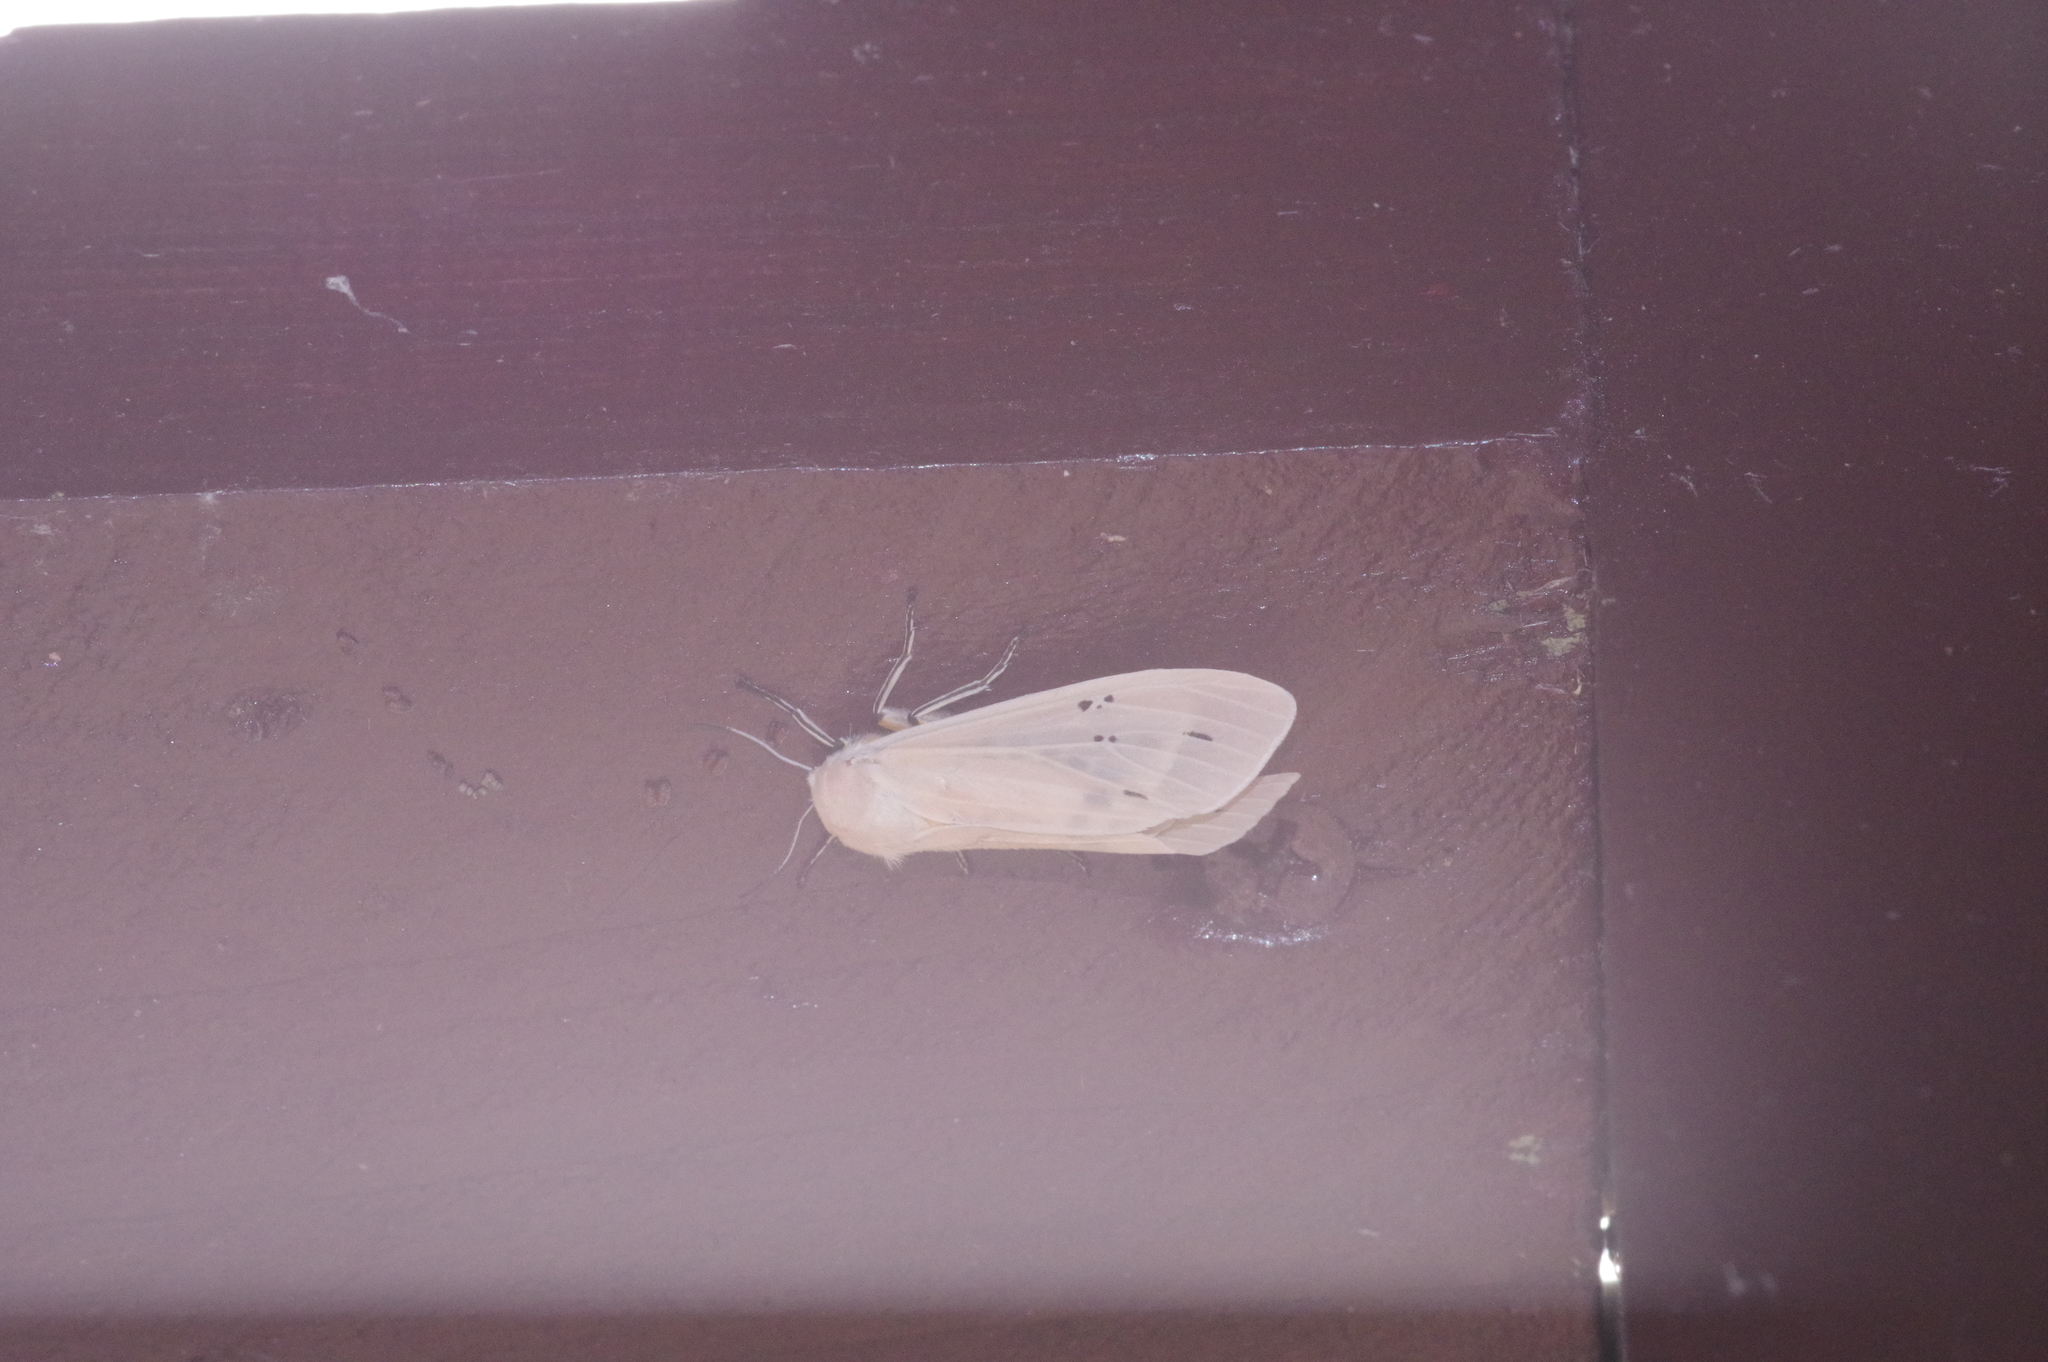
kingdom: Animalia
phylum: Arthropoda
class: Insecta
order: Lepidoptera
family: Erebidae
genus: Creatonotos
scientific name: Creatonotos transiens
